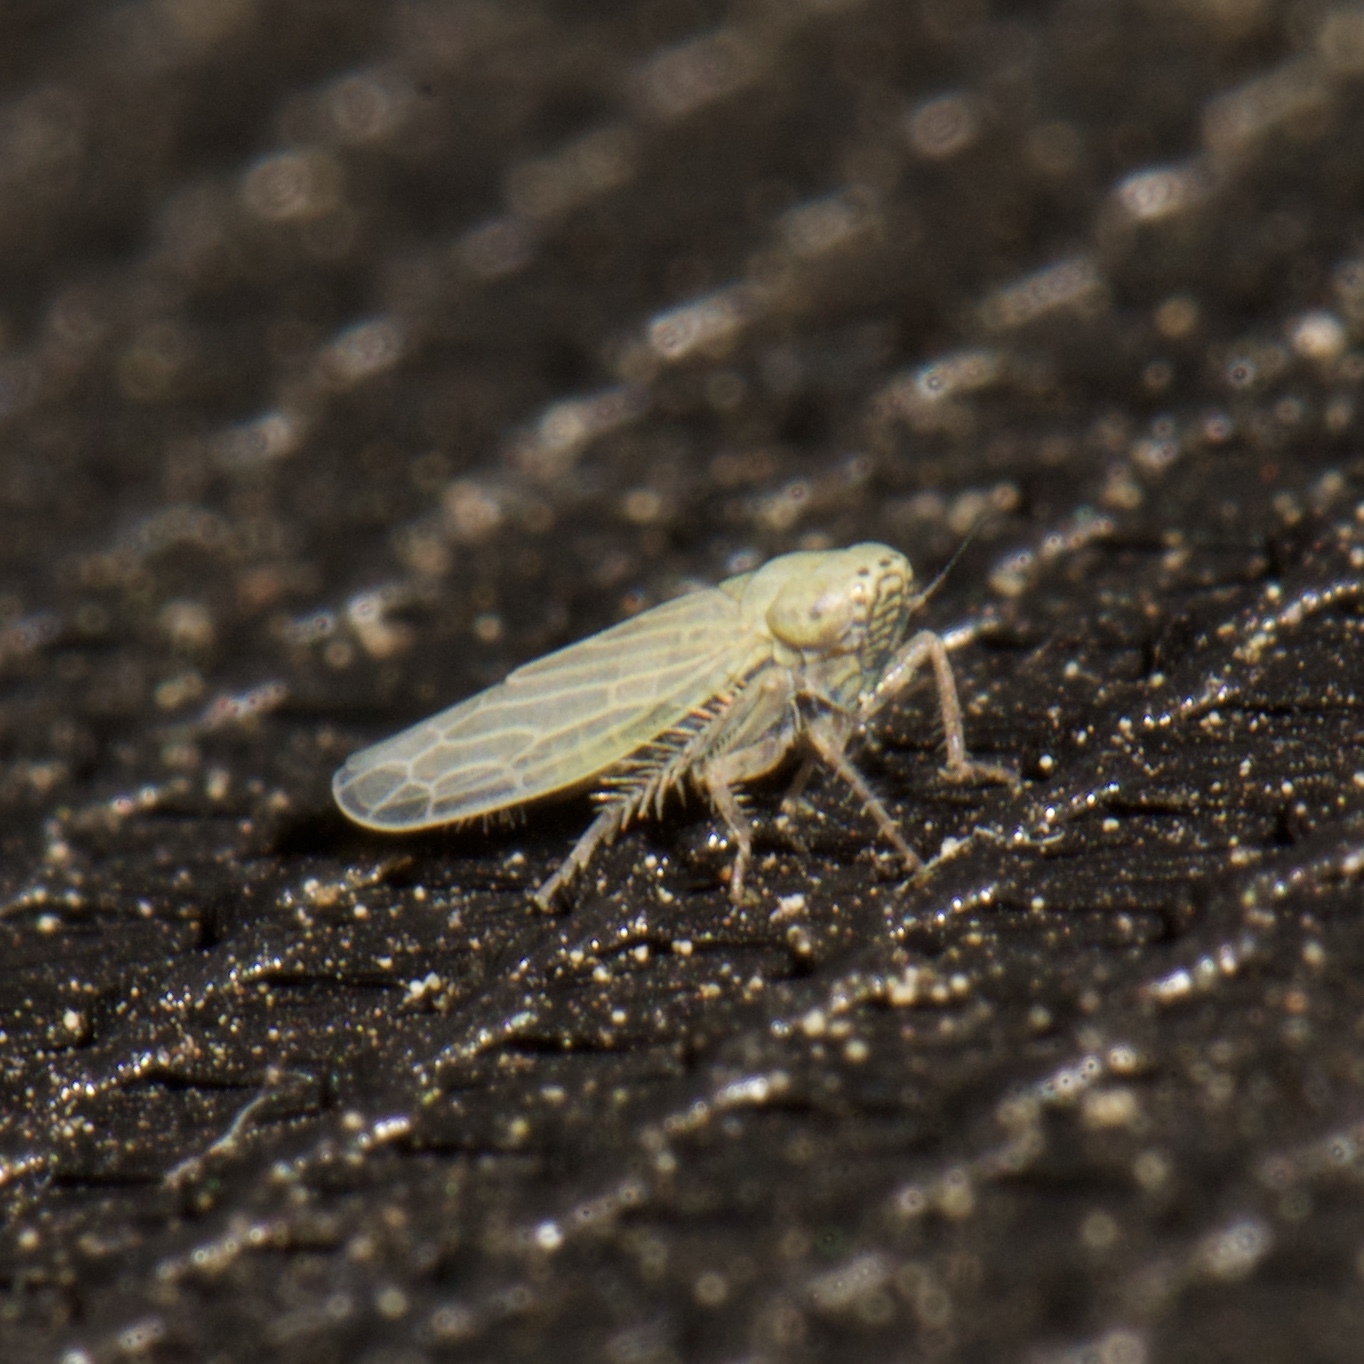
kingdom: Animalia
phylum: Arthropoda
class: Insecta
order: Hemiptera
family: Cicadellidae
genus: Graminella
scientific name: Graminella nigrifrons
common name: Blackfaced leafhopper
